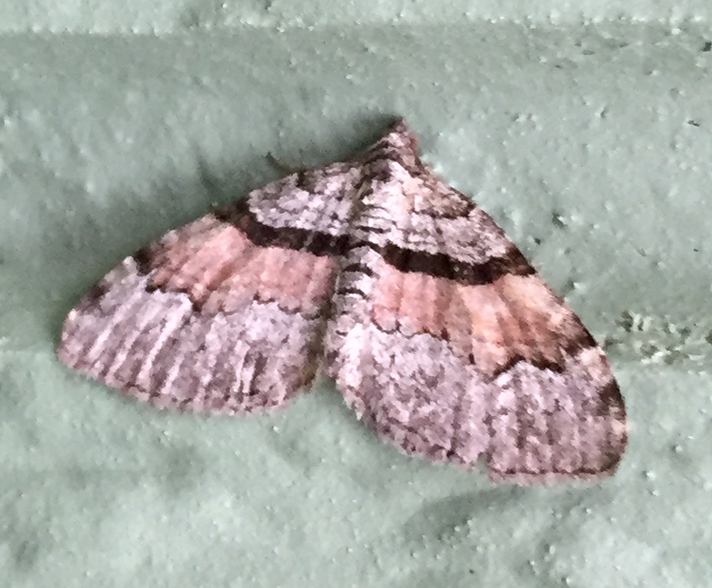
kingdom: Animalia
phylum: Arthropoda
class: Insecta
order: Lepidoptera
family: Geometridae
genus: Xanthorhoe
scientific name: Xanthorhoe packardata
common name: Packard's carpet
